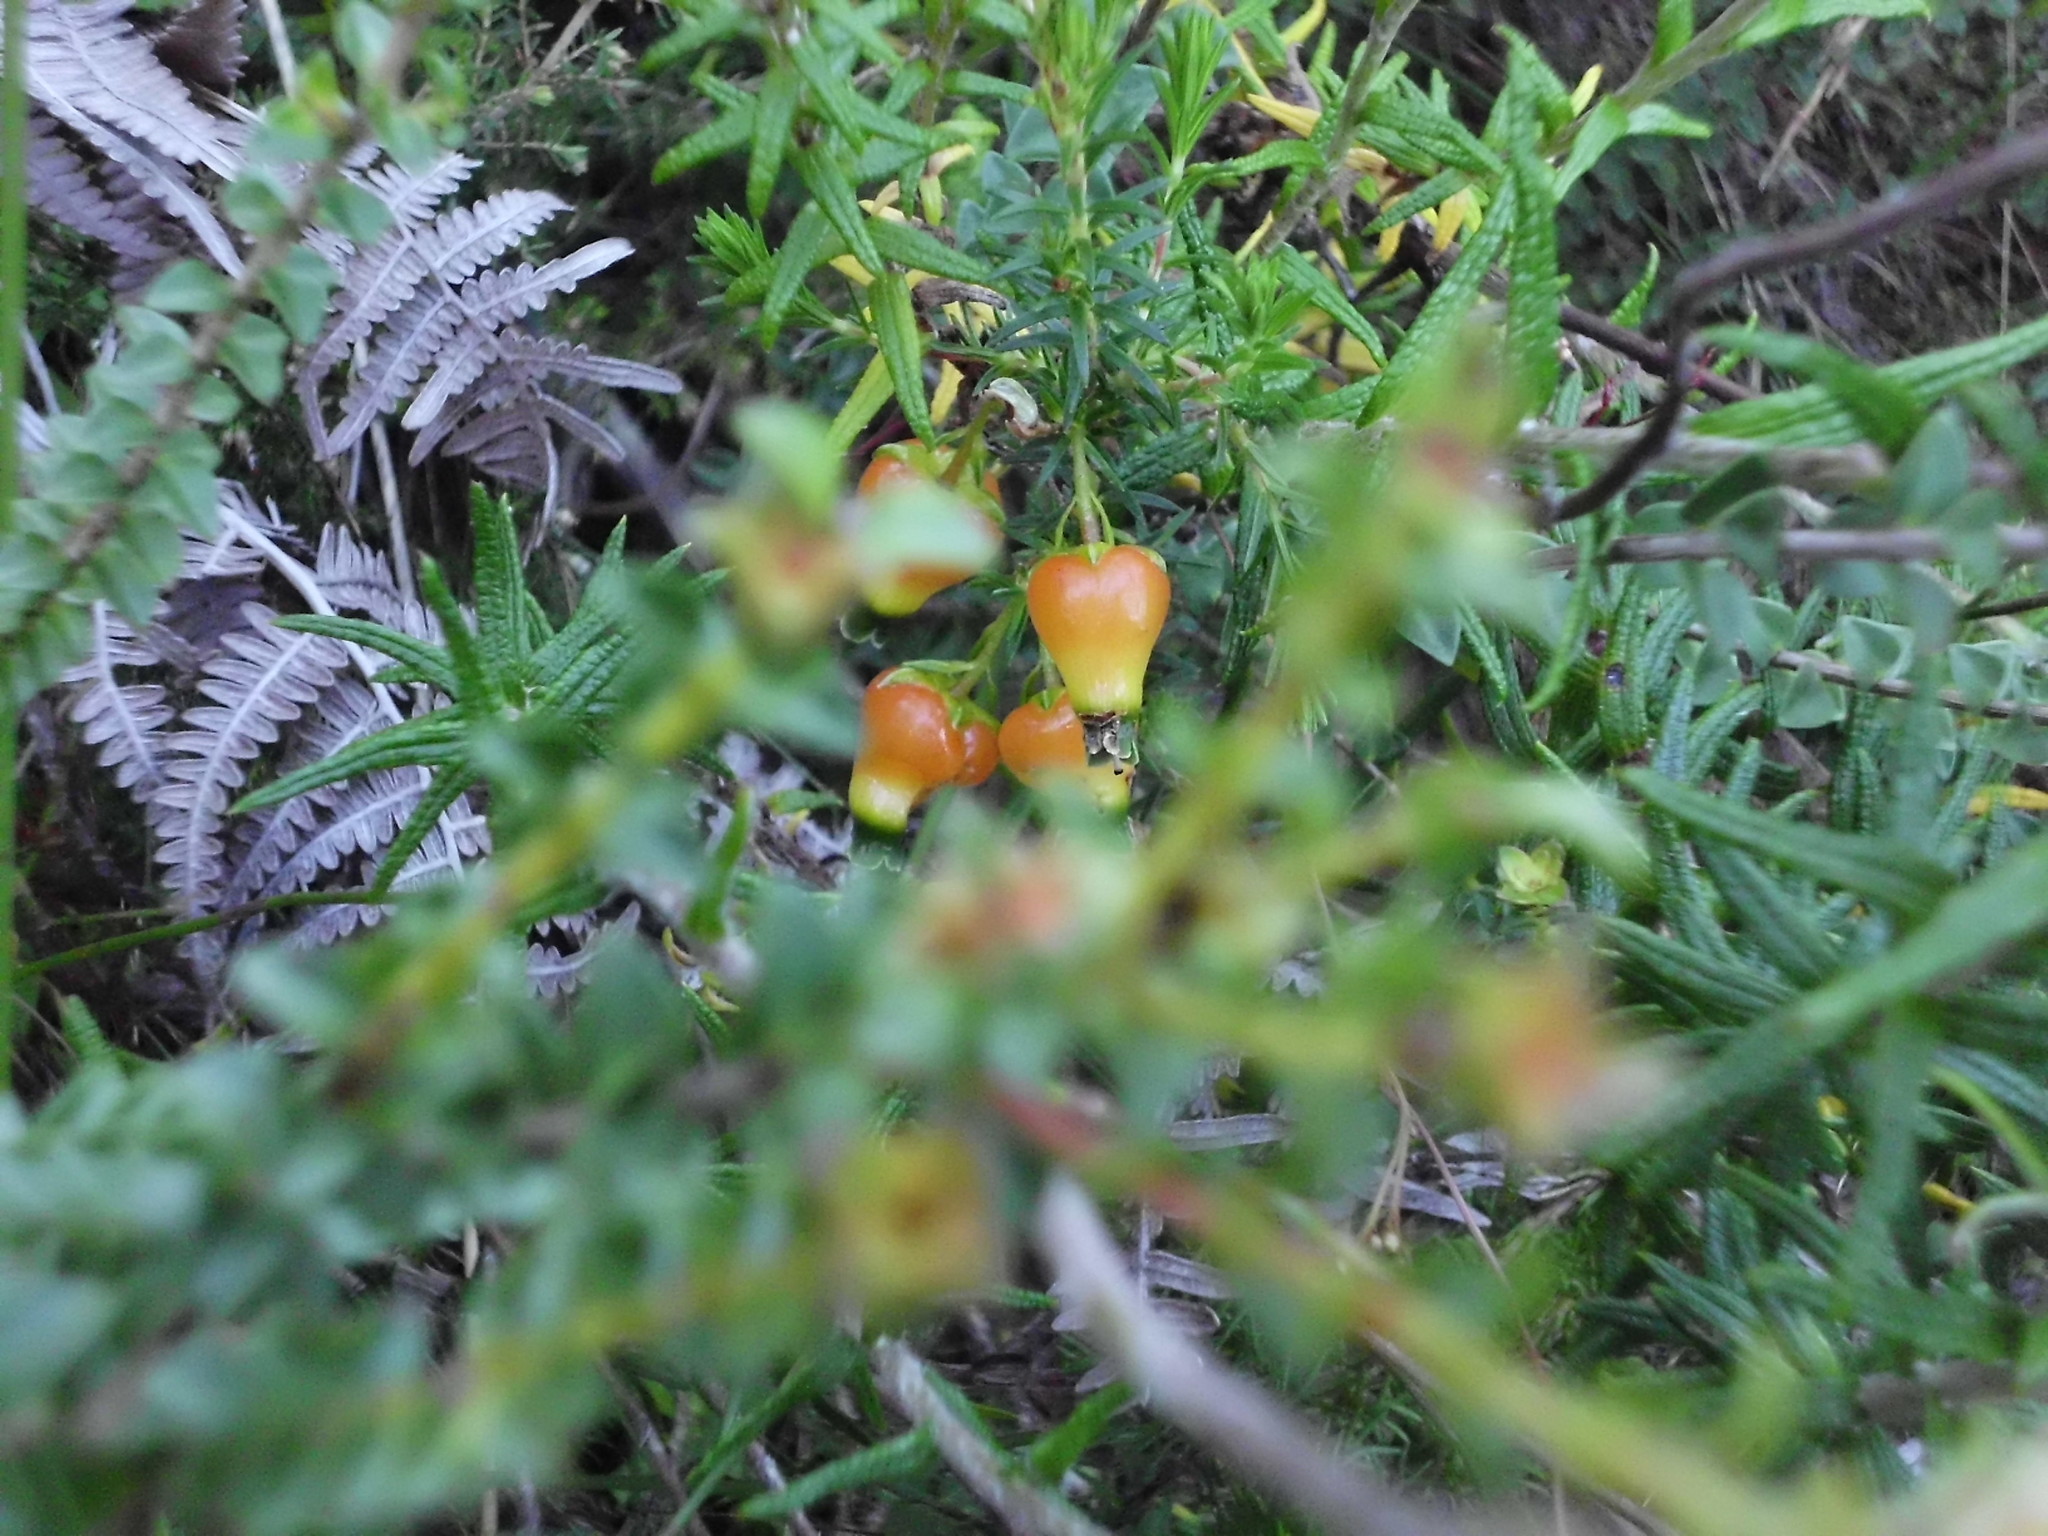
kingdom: Plantae
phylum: Tracheophyta
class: Magnoliopsida
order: Ericales
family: Ericaceae
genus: Erica
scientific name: Erica blenna
